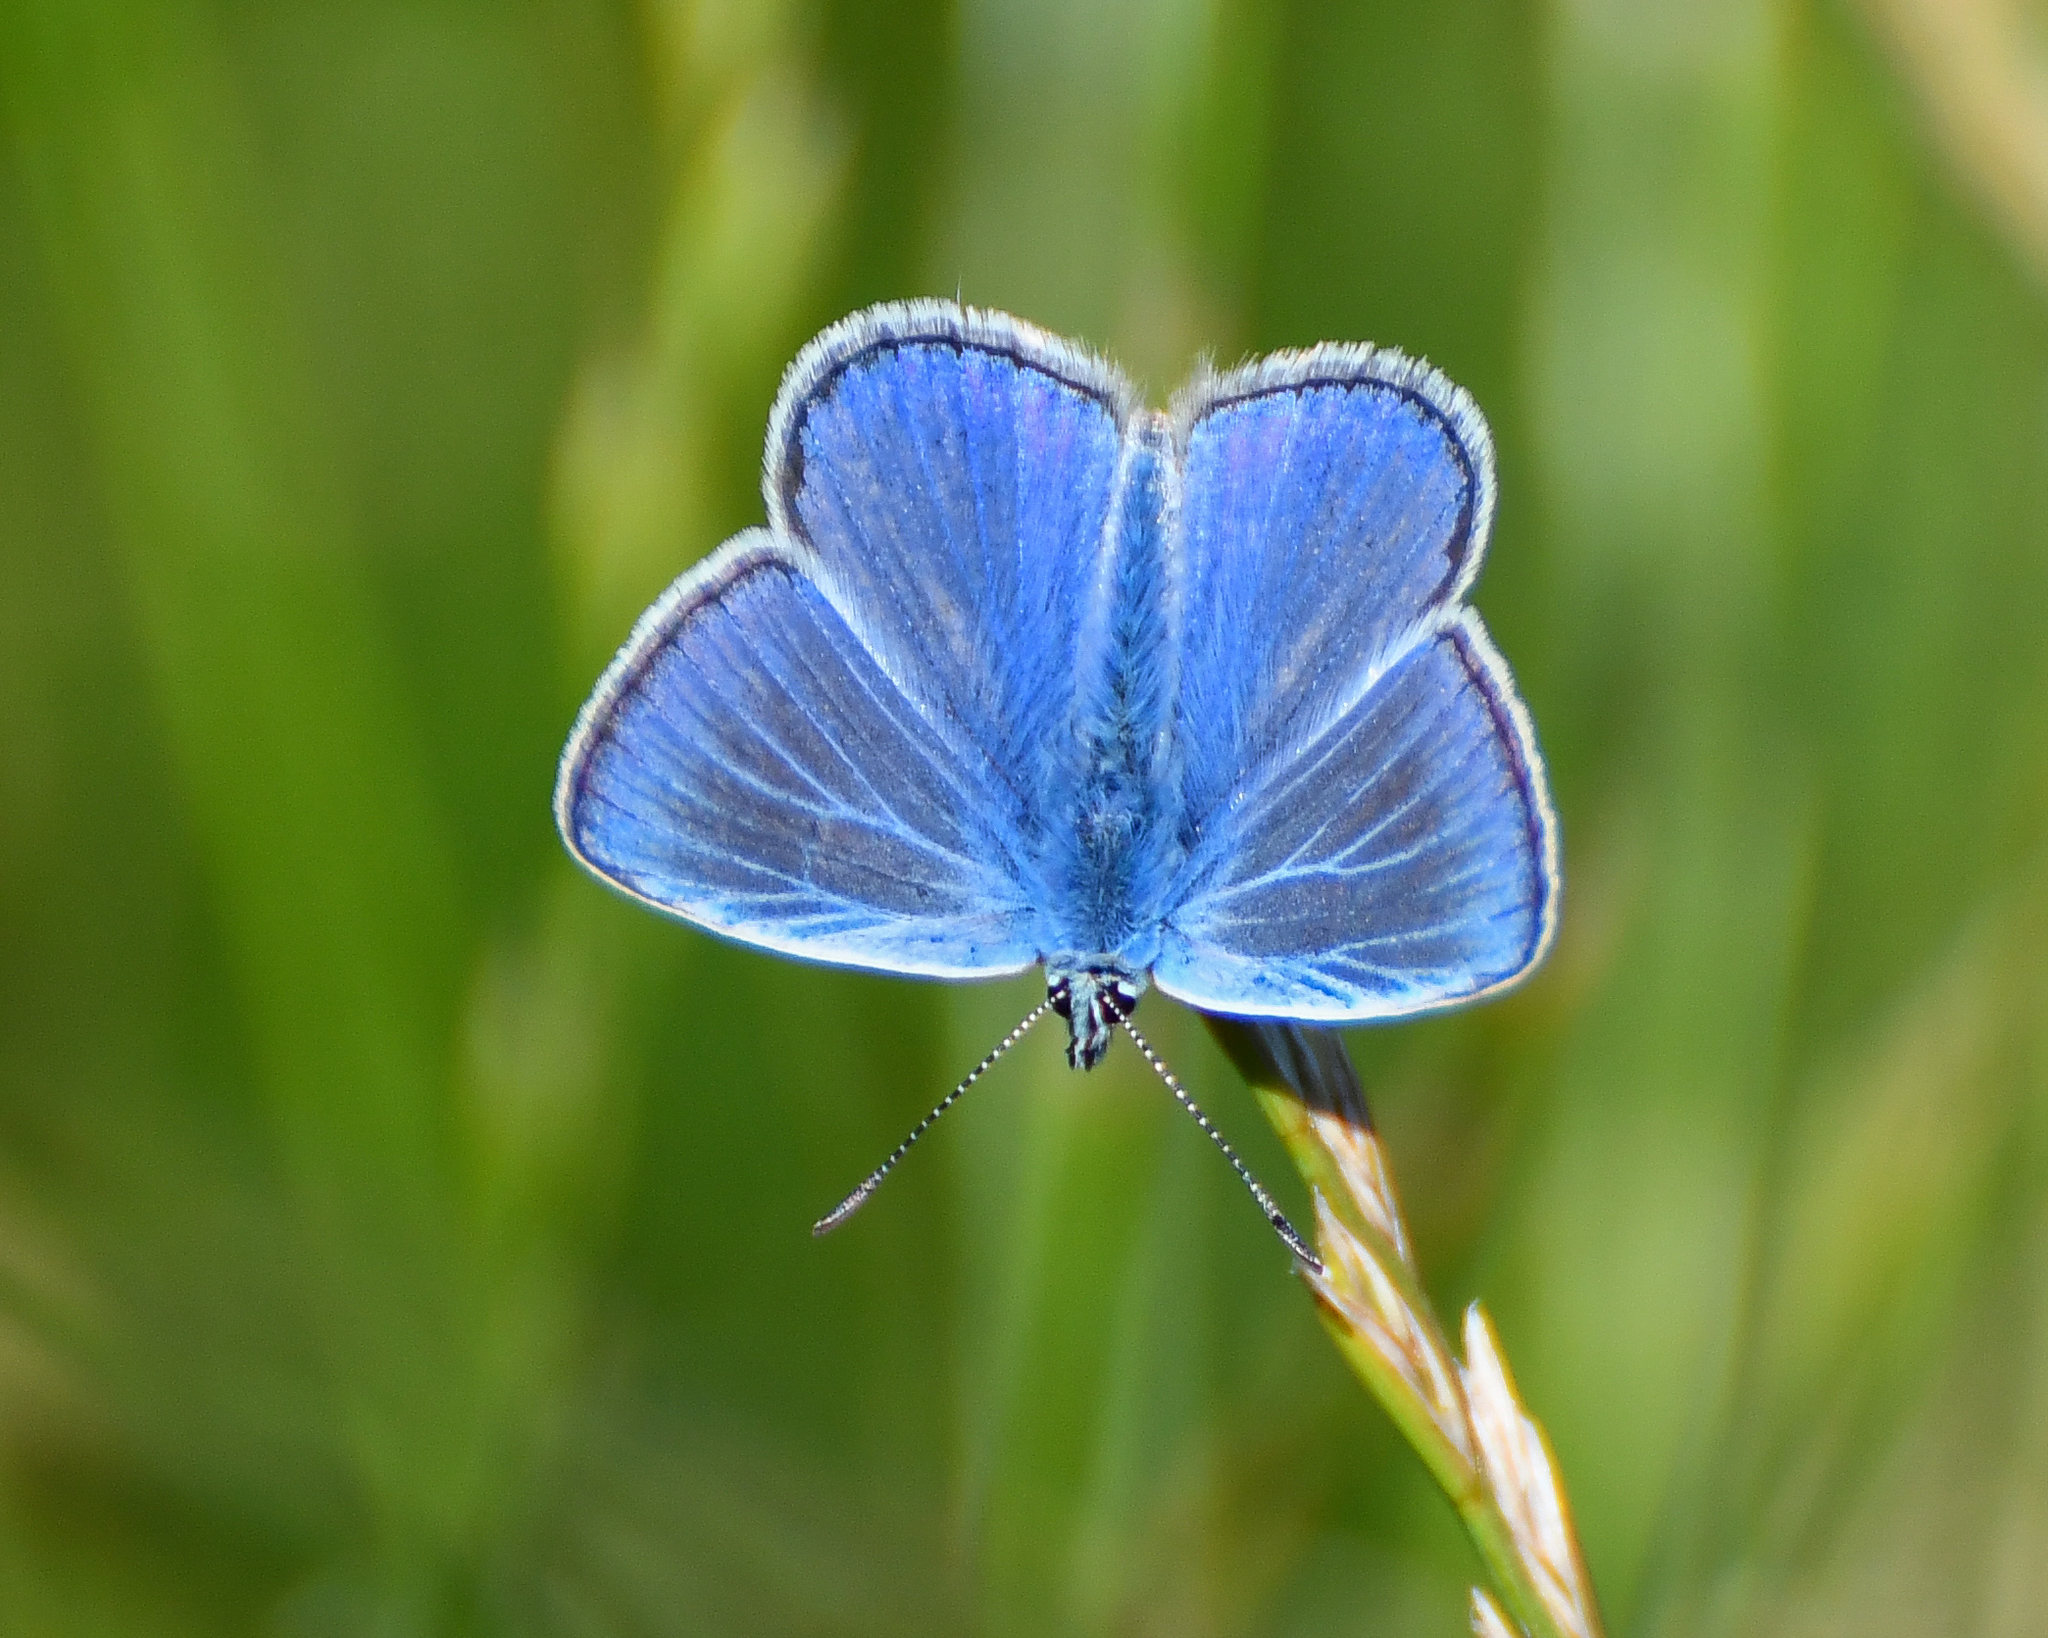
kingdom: Animalia
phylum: Arthropoda
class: Insecta
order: Lepidoptera
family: Lycaenidae
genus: Polyommatus
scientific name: Polyommatus icarus
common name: Common blue
